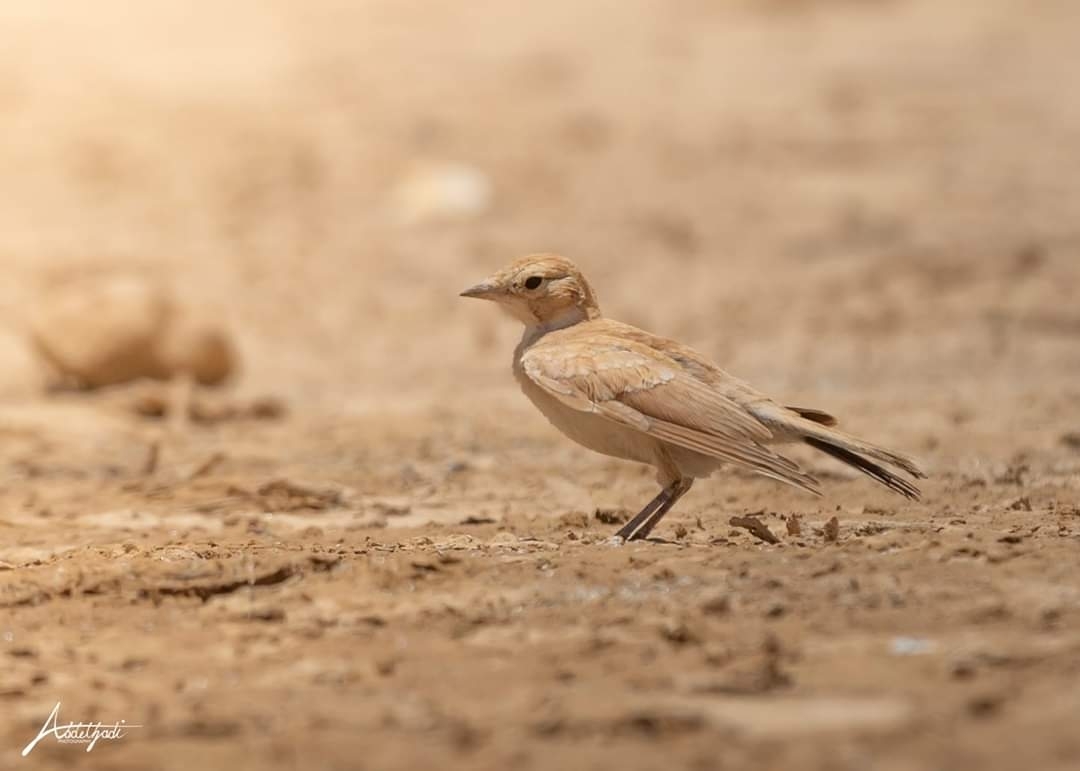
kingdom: Animalia
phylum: Chordata
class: Aves
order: Passeriformes
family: Alaudidae
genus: Ammomanes
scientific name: Ammomanes deserti
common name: Desert lark
